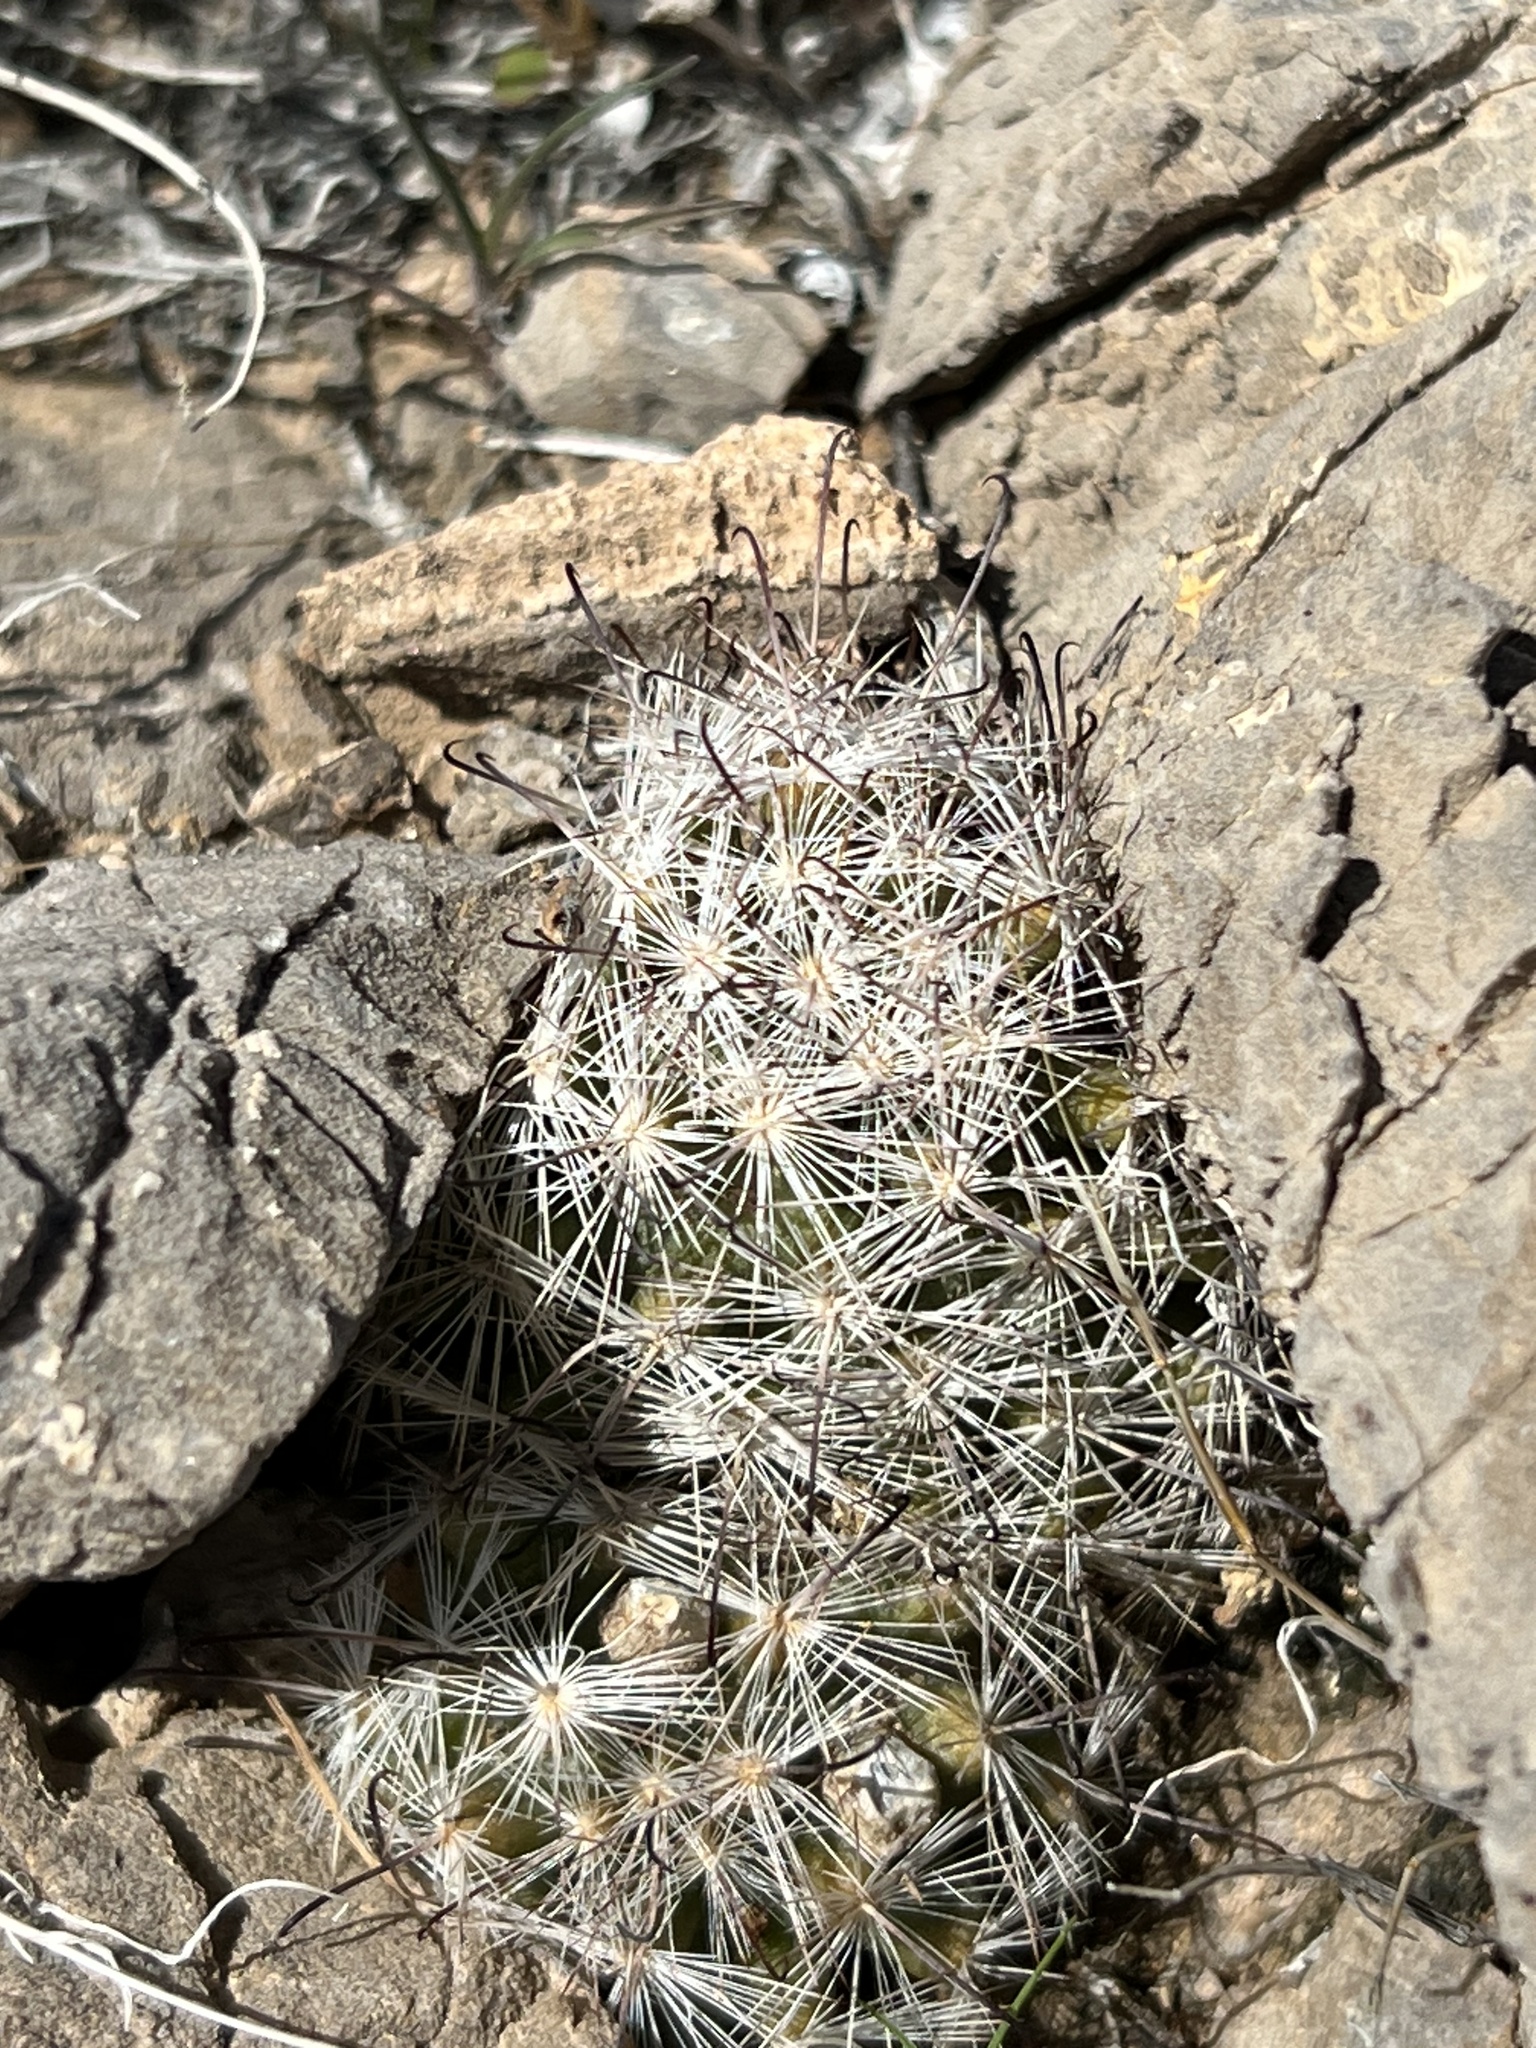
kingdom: Plantae
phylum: Tracheophyta
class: Magnoliopsida
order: Caryophyllales
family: Cactaceae
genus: Cochemiea
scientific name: Cochemiea tetrancistra
